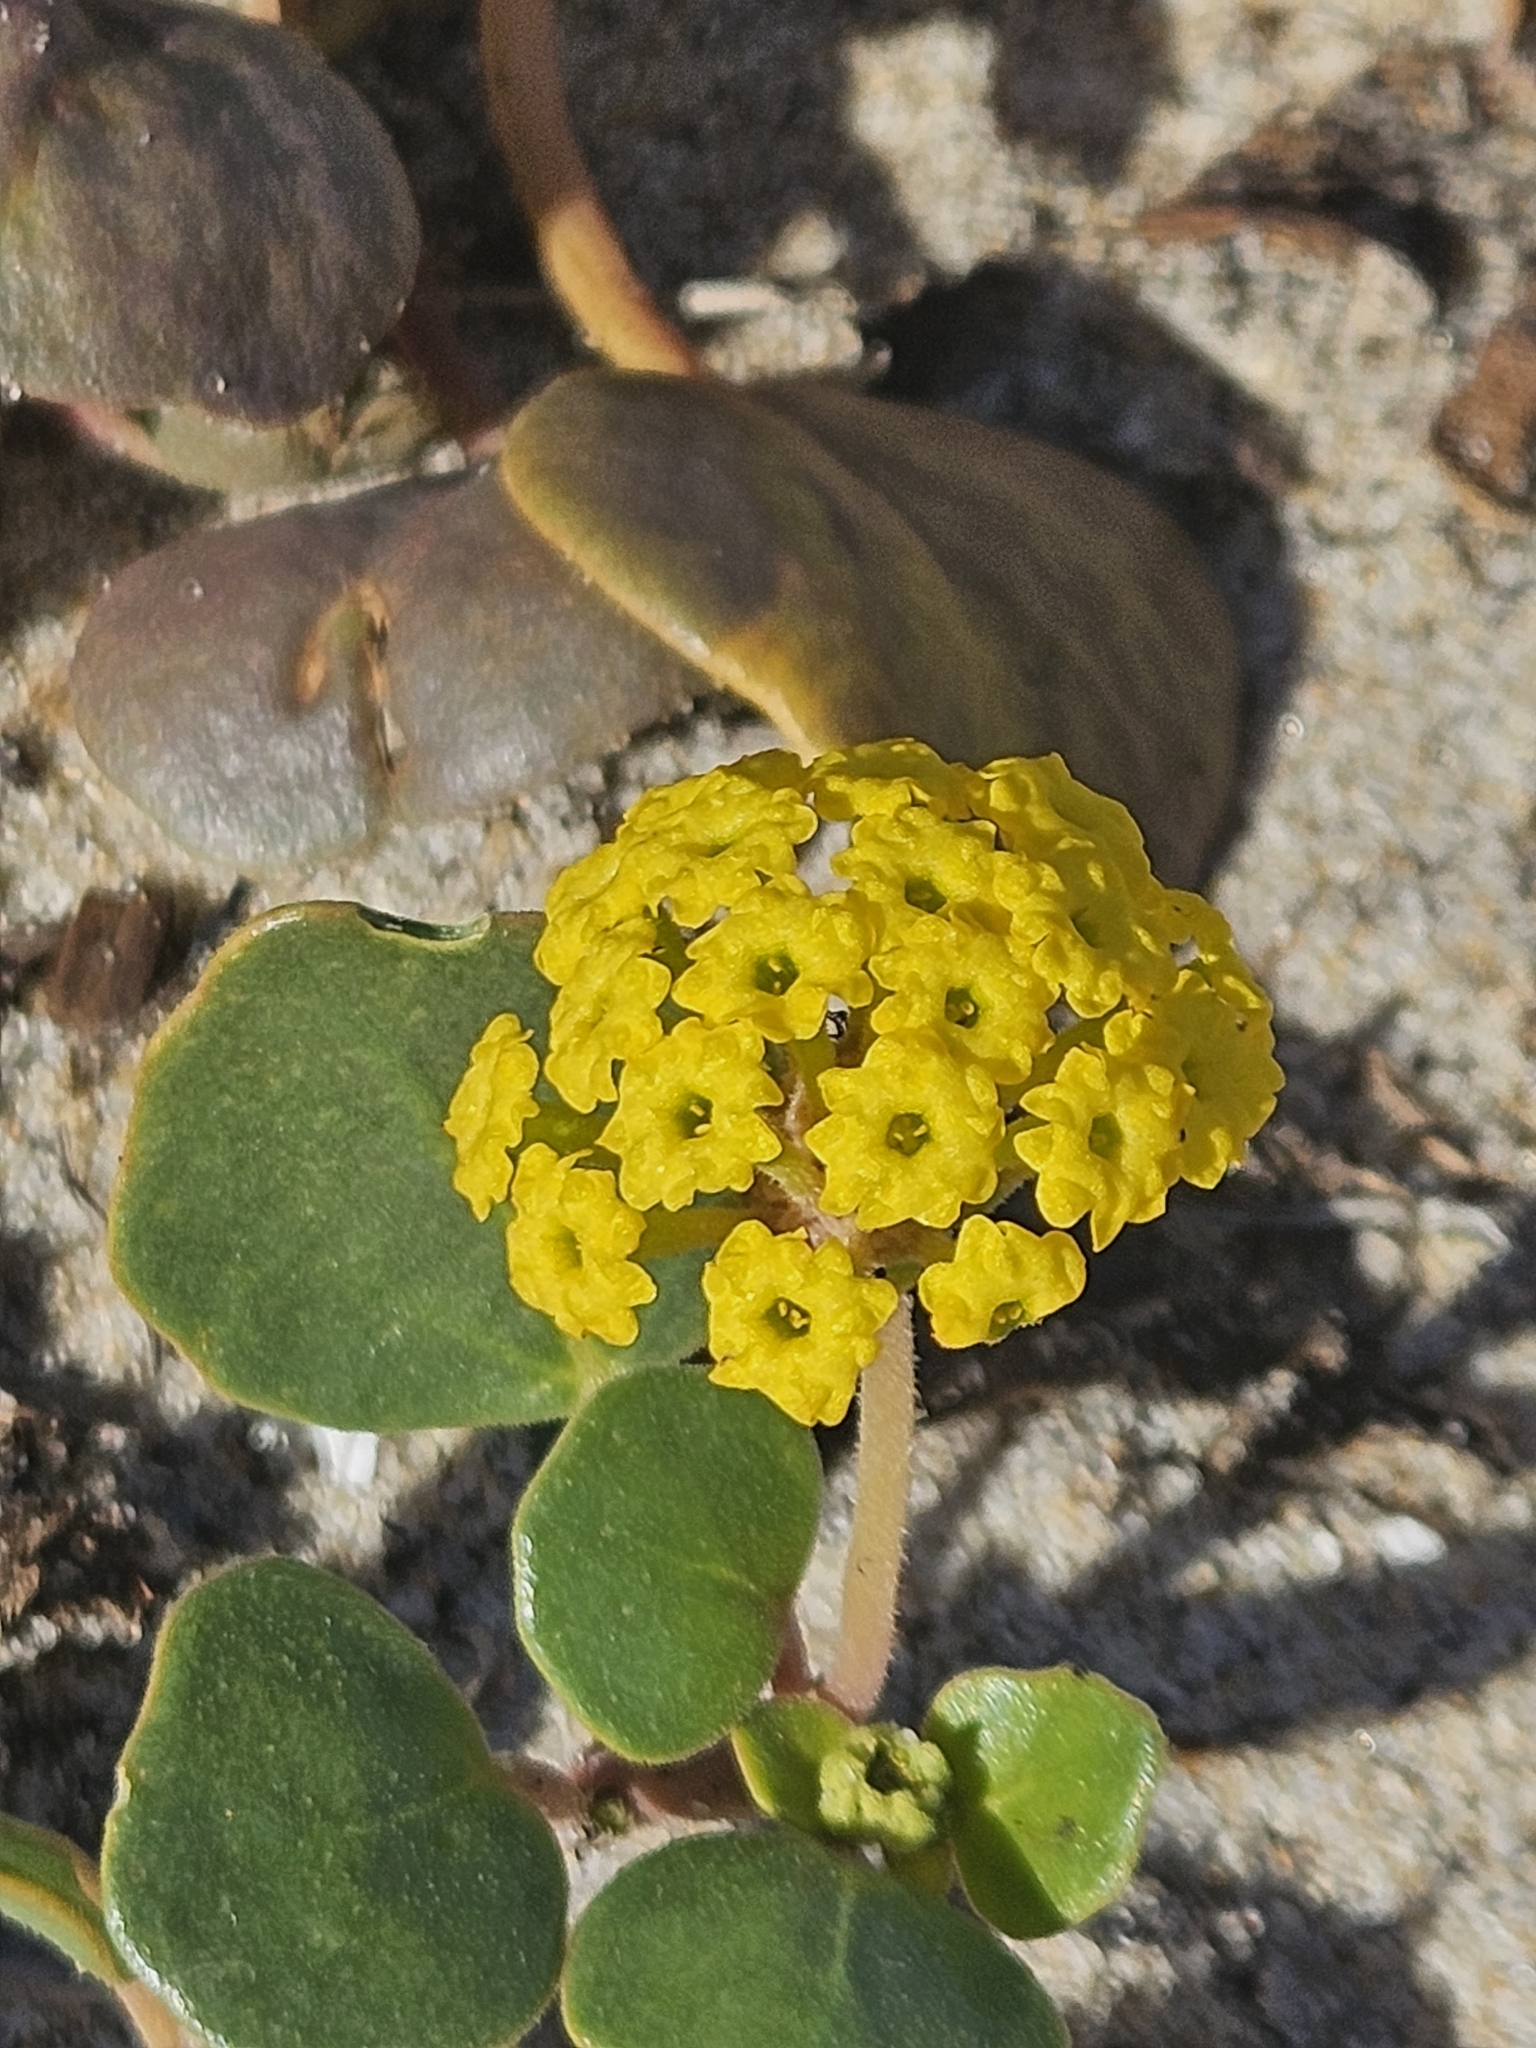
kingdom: Plantae
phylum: Tracheophyta
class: Magnoliopsida
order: Caryophyllales
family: Nyctaginaceae
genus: Abronia
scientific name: Abronia latifolia
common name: Yellow sand-verbena
